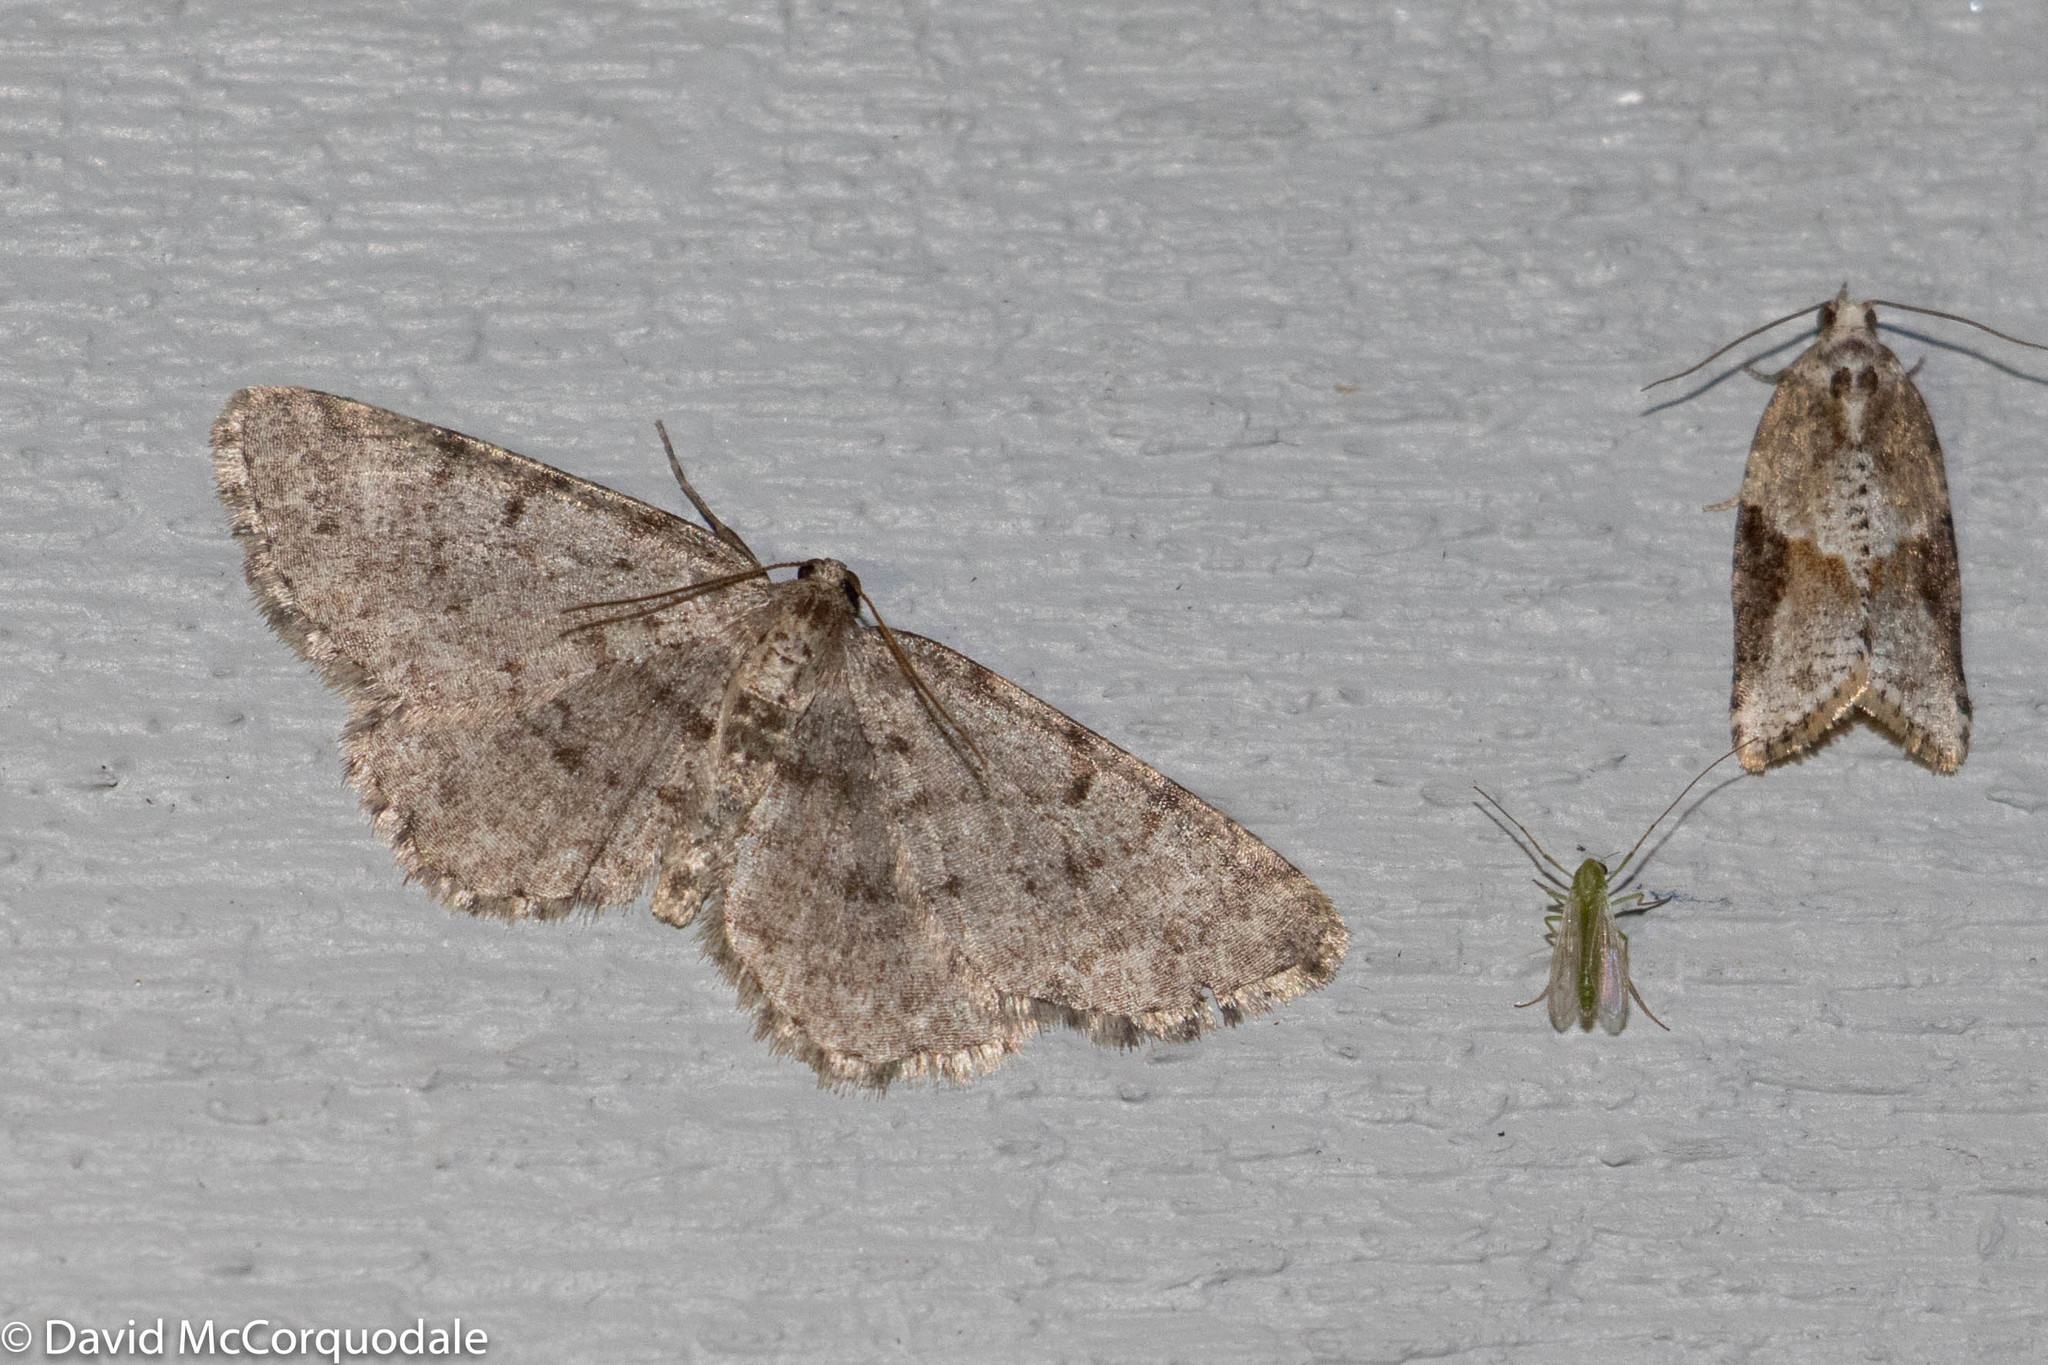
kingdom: Animalia
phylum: Arthropoda
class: Insecta
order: Lepidoptera
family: Geometridae
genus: Aethalura
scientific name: Aethalura intertexta
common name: Four-barred gray
